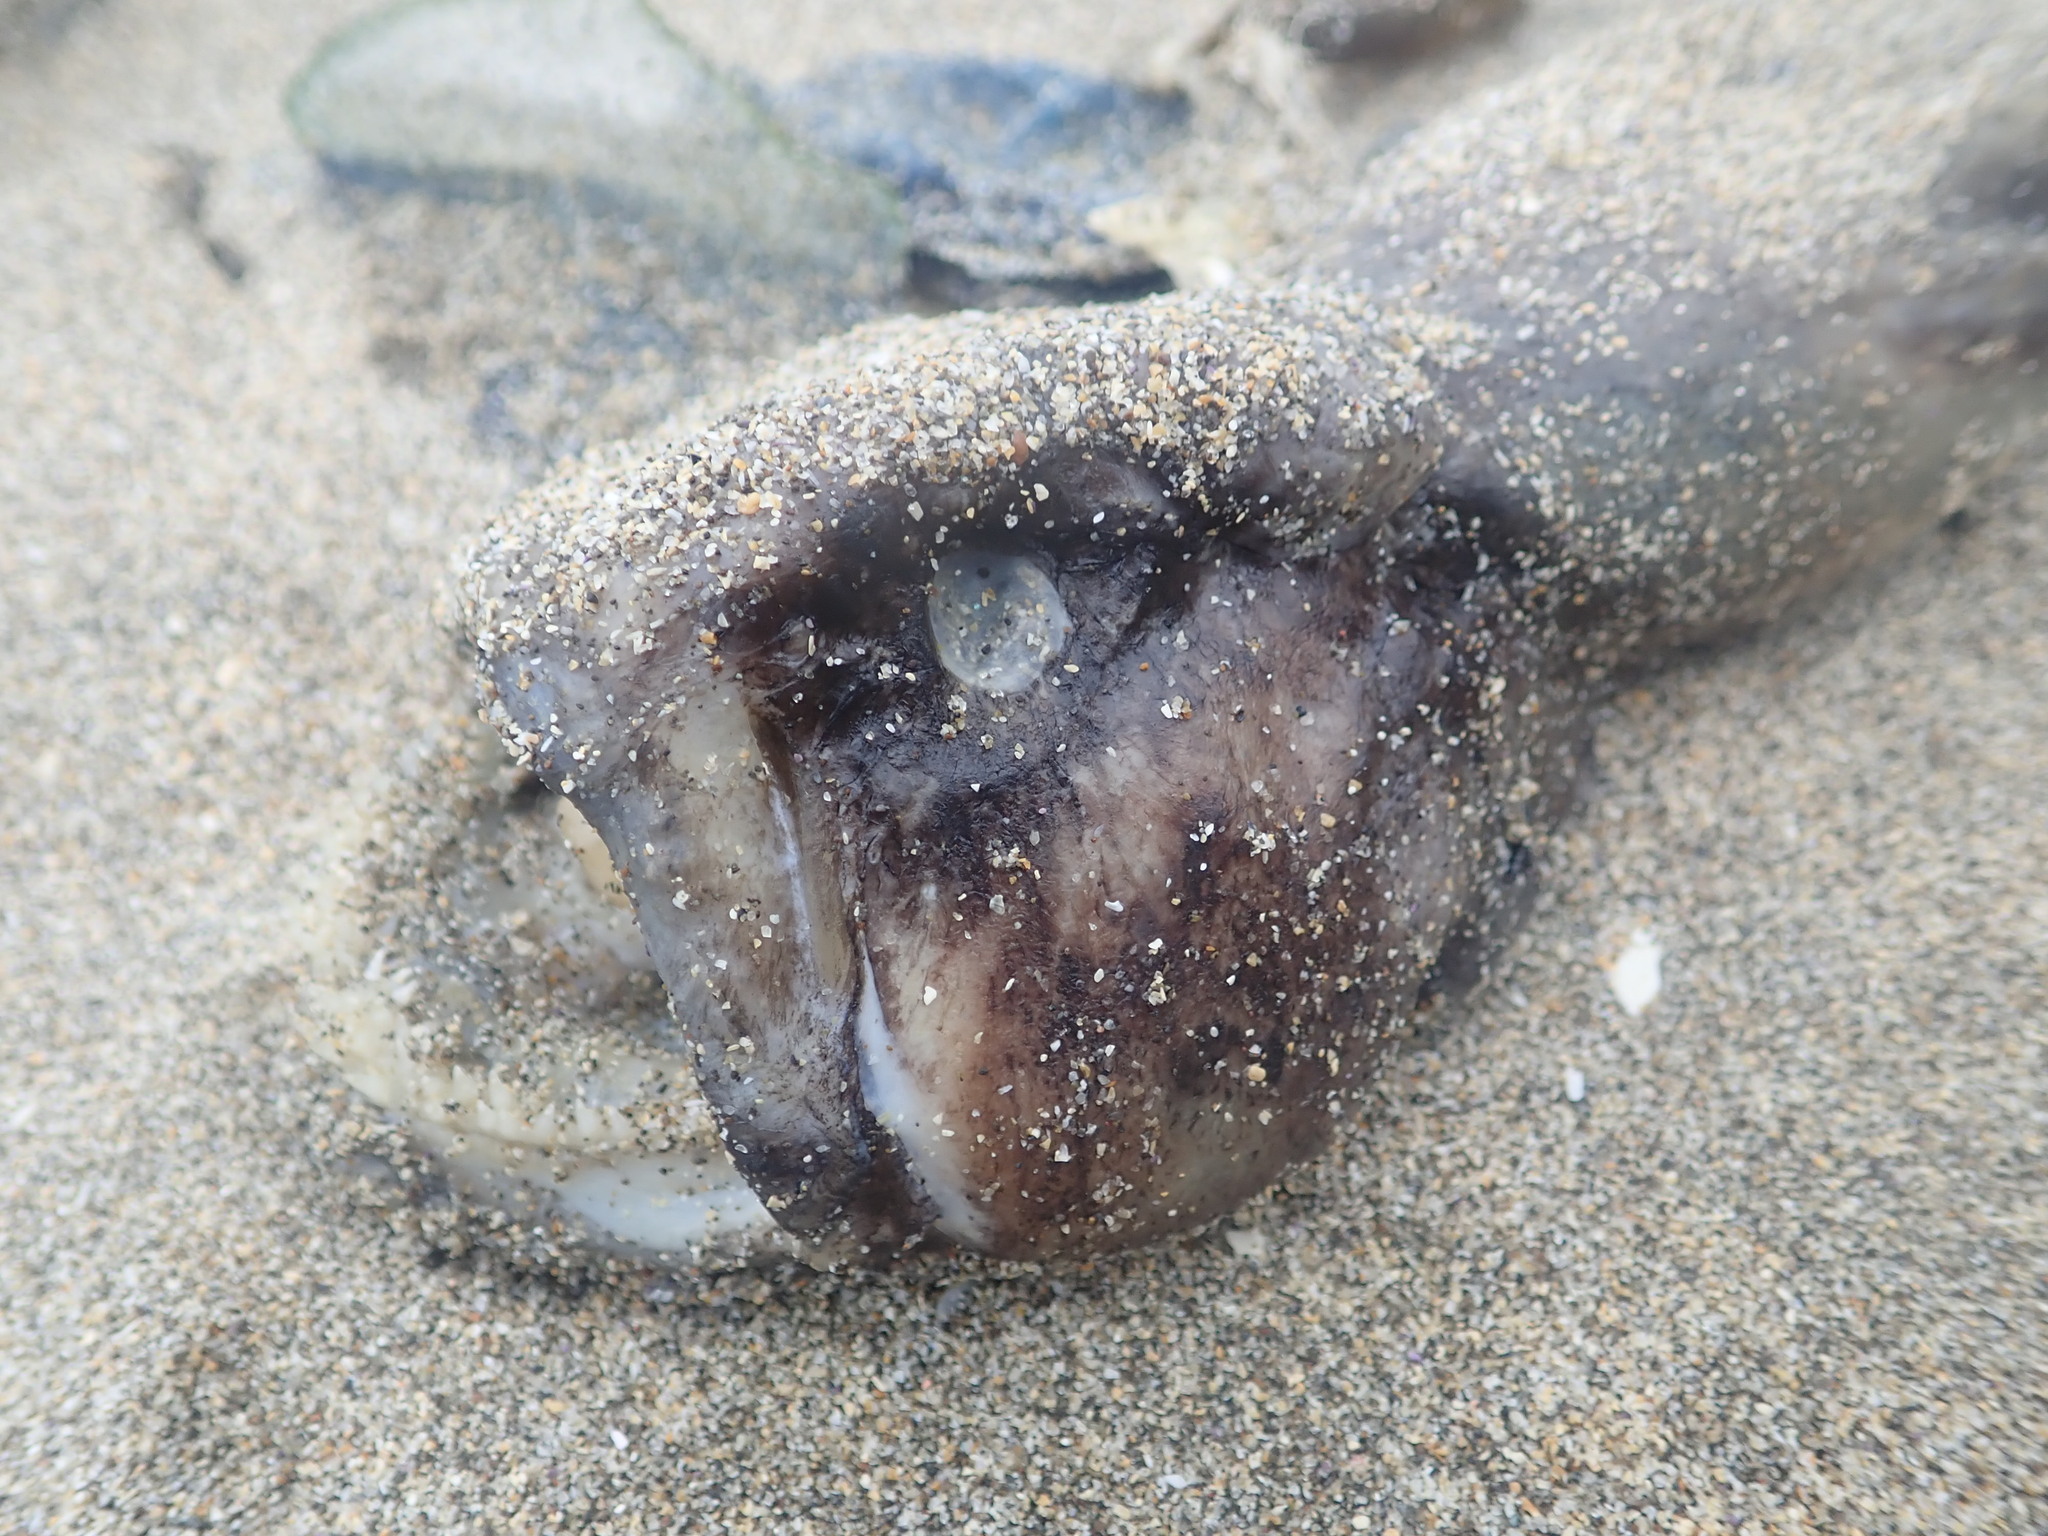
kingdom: Animalia
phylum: Chordata
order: Perciformes
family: Stichaeidae
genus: Cebidichthys
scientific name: Cebidichthys violaceus
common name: Monkeyface prickleback
